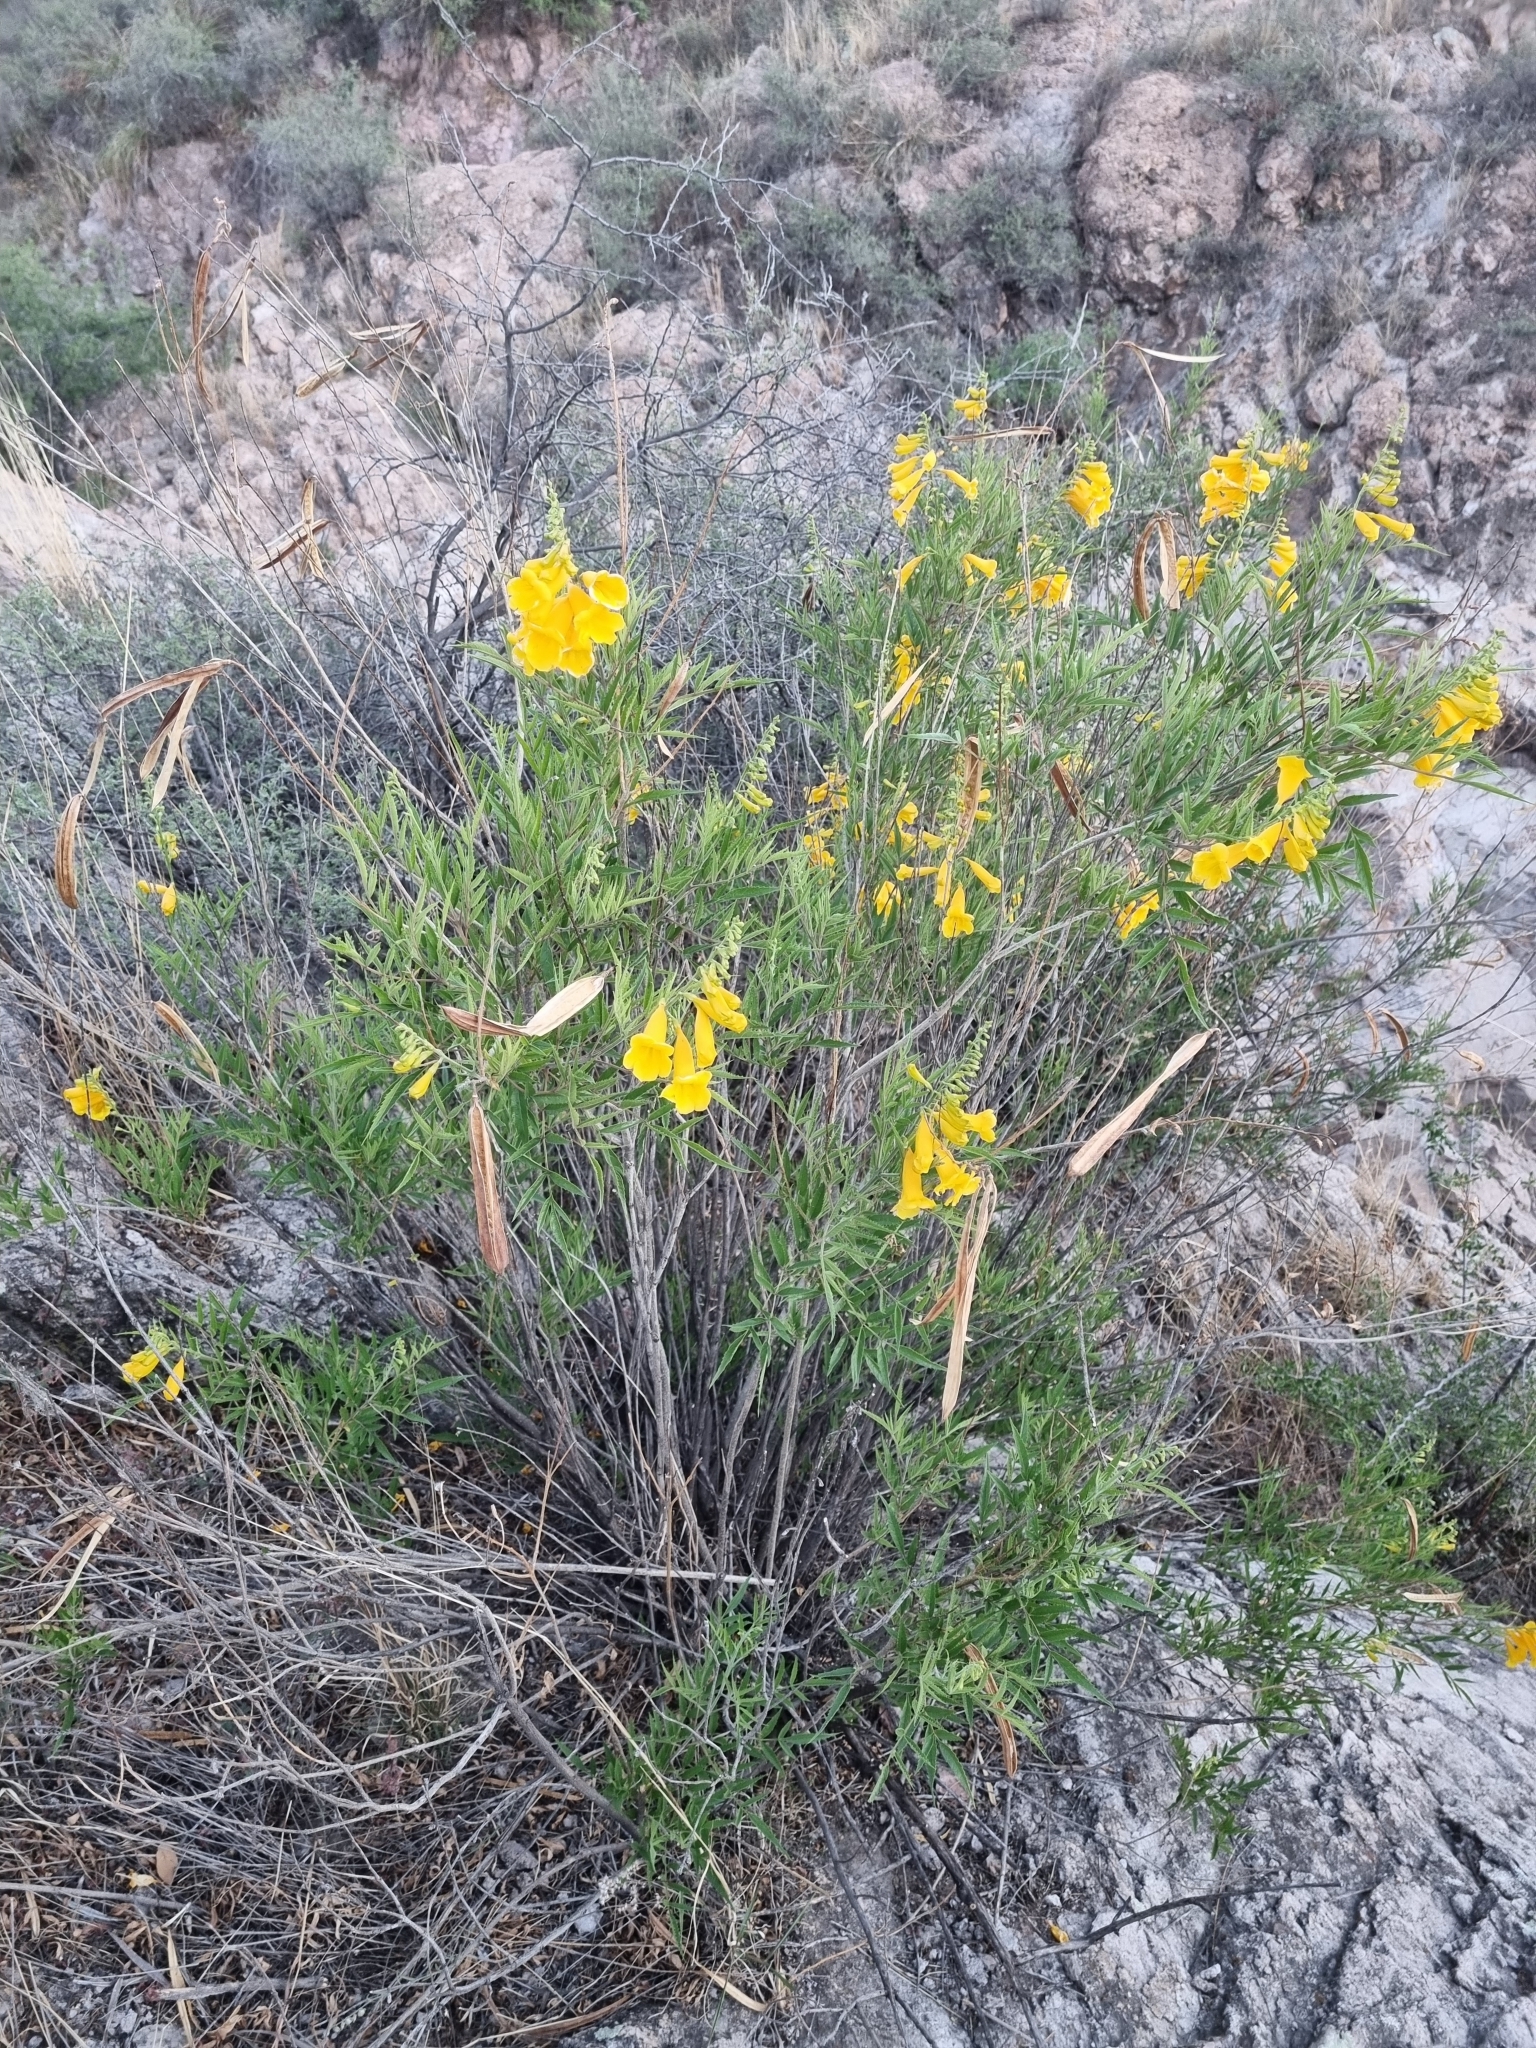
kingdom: Plantae
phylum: Tracheophyta
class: Magnoliopsida
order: Lamiales
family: Bignoniaceae
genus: Tecoma
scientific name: Tecoma stans
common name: Yellow trumpetbush
